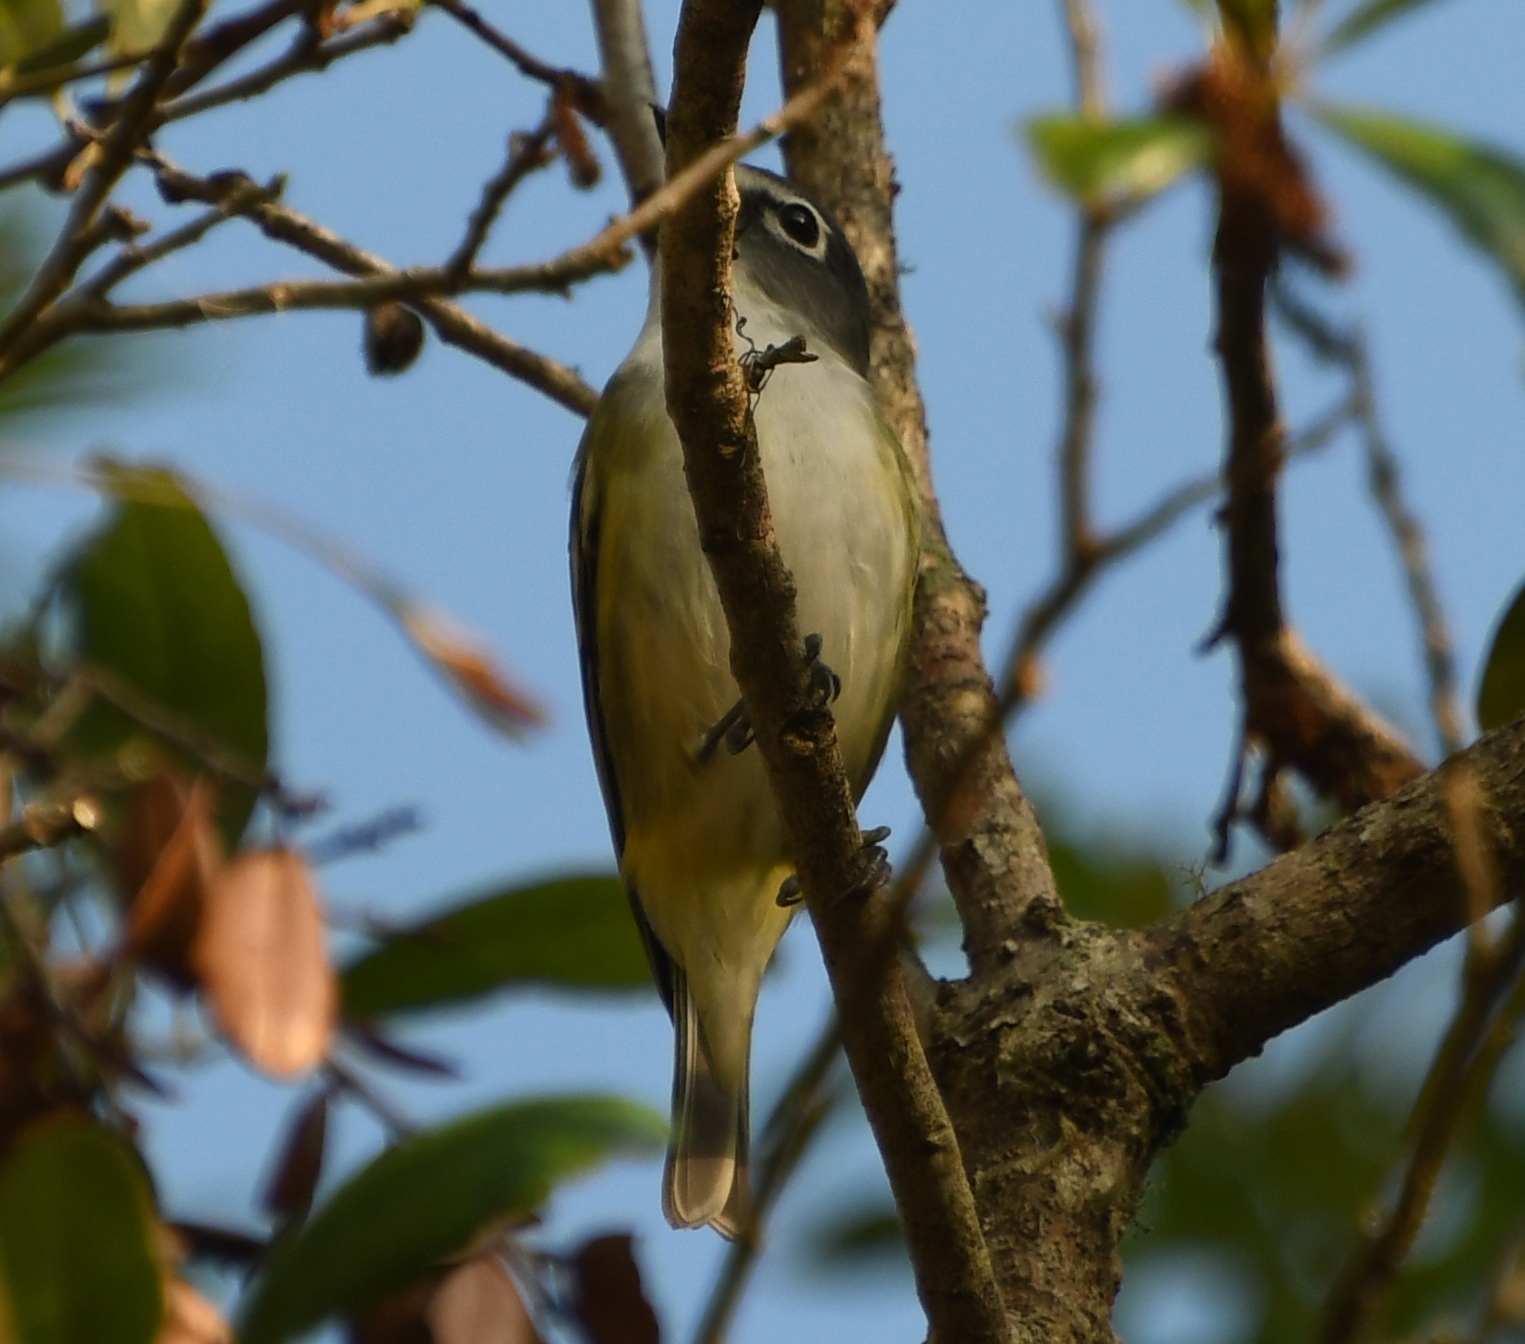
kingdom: Animalia
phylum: Chordata
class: Aves
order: Passeriformes
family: Vireonidae
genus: Vireo
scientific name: Vireo solitarius
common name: Blue-headed vireo
